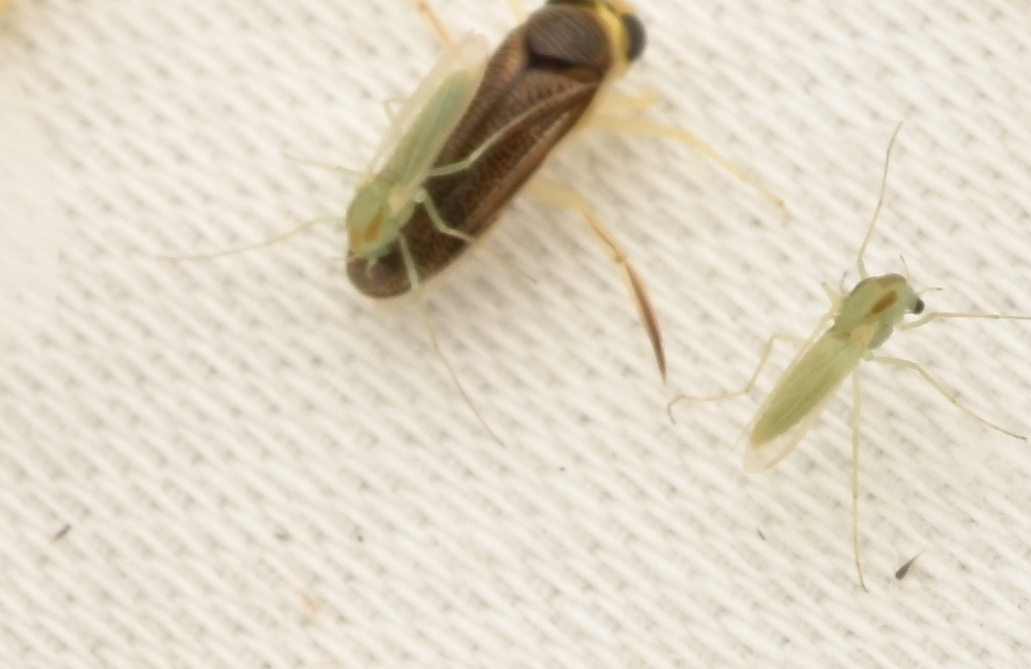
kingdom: Animalia
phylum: Arthropoda
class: Insecta
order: Hemiptera
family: Corixidae
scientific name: Corixidae
